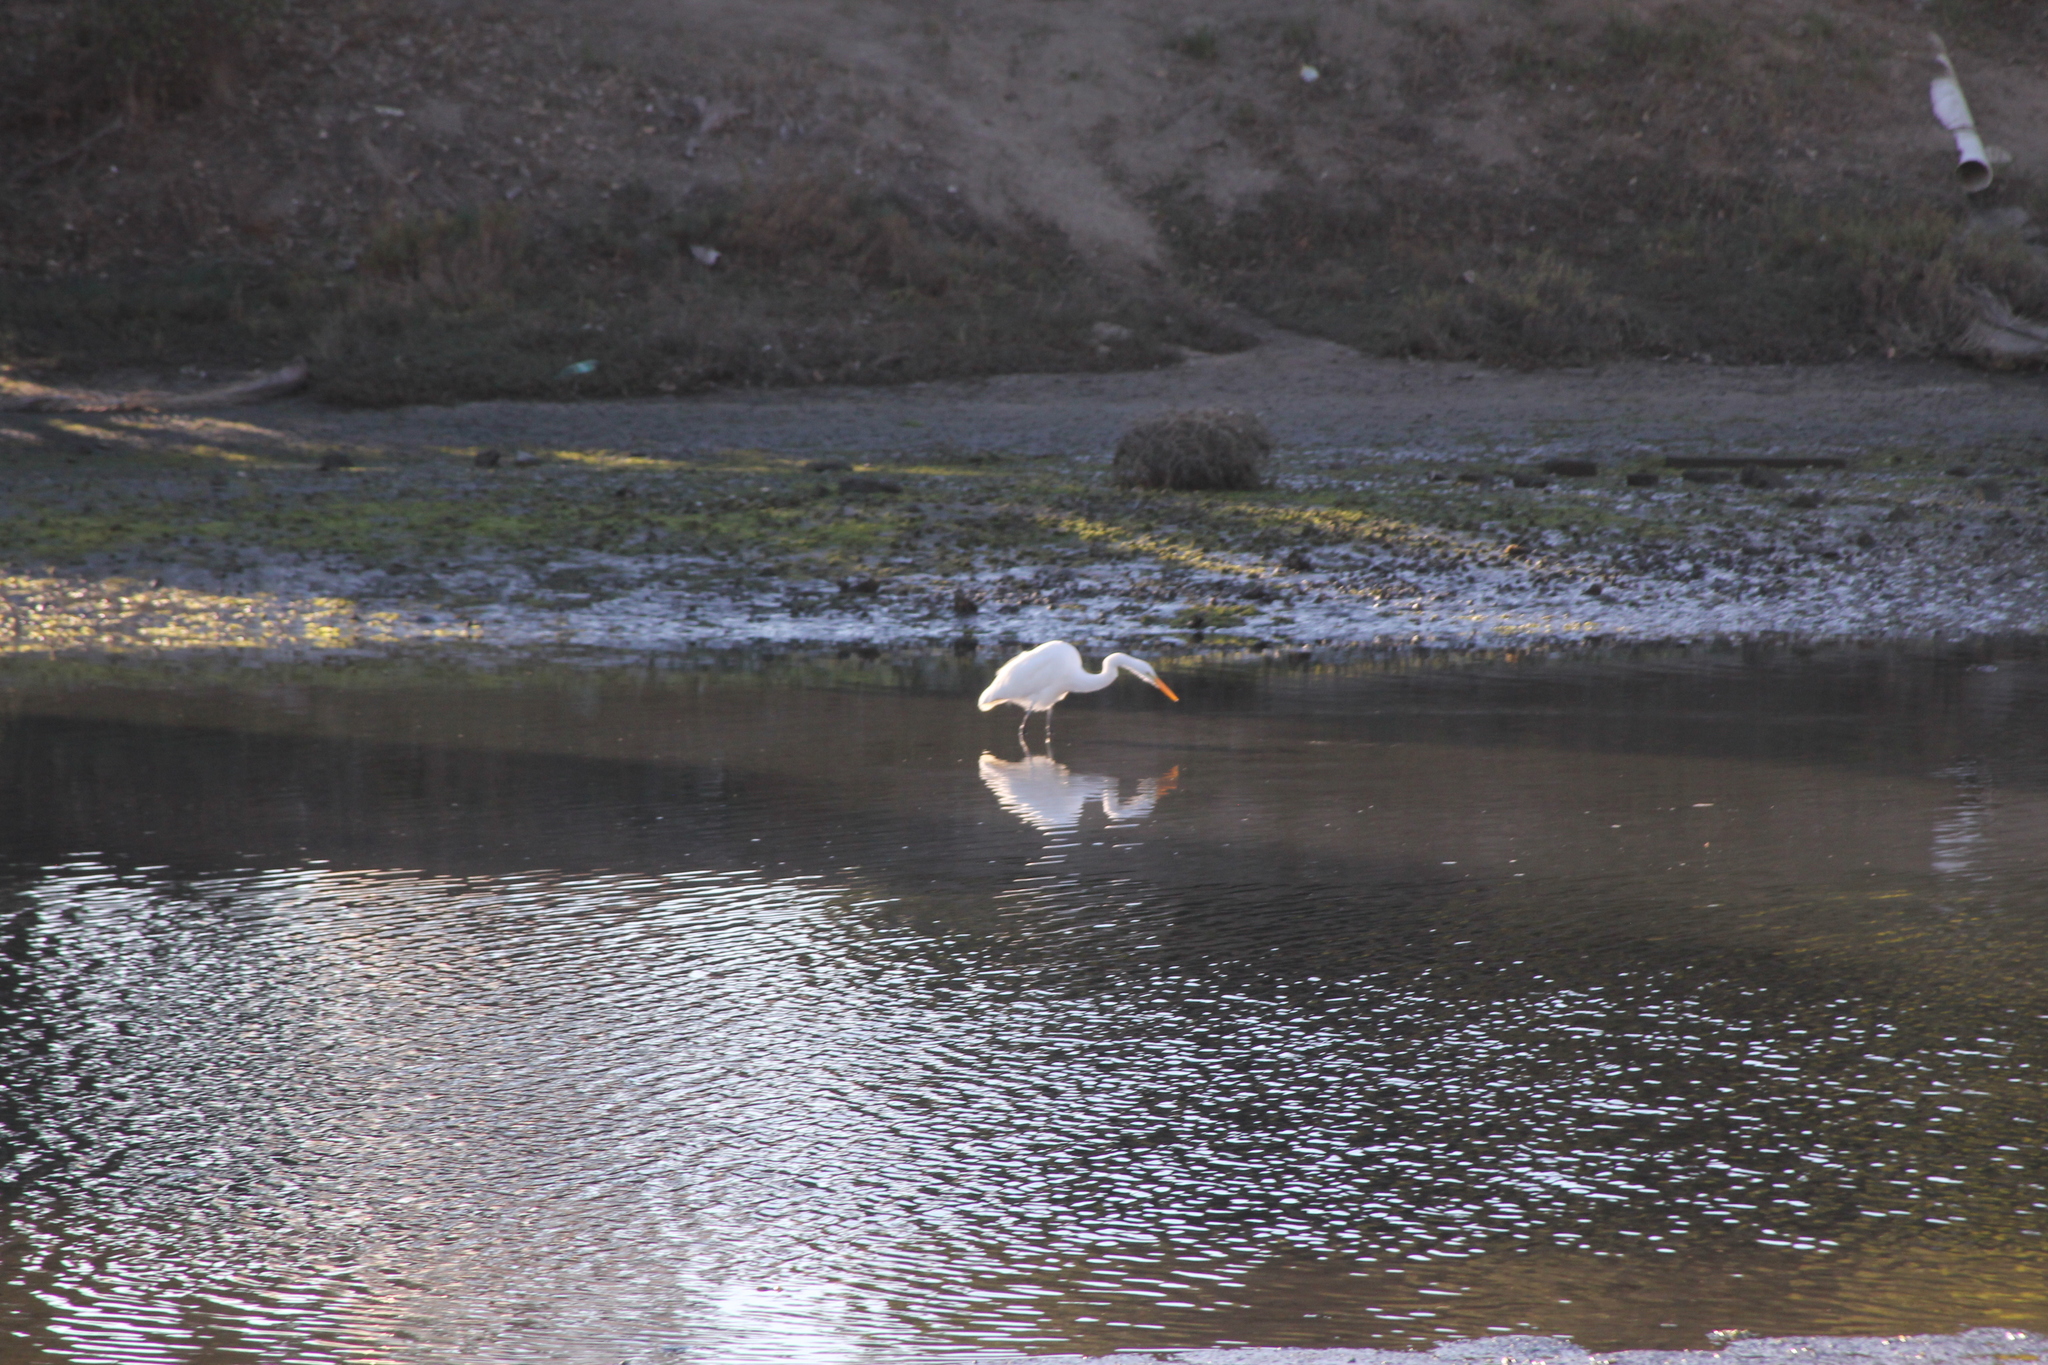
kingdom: Animalia
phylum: Chordata
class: Aves
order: Pelecaniformes
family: Ardeidae
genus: Ardea
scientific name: Ardea alba
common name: Great egret
